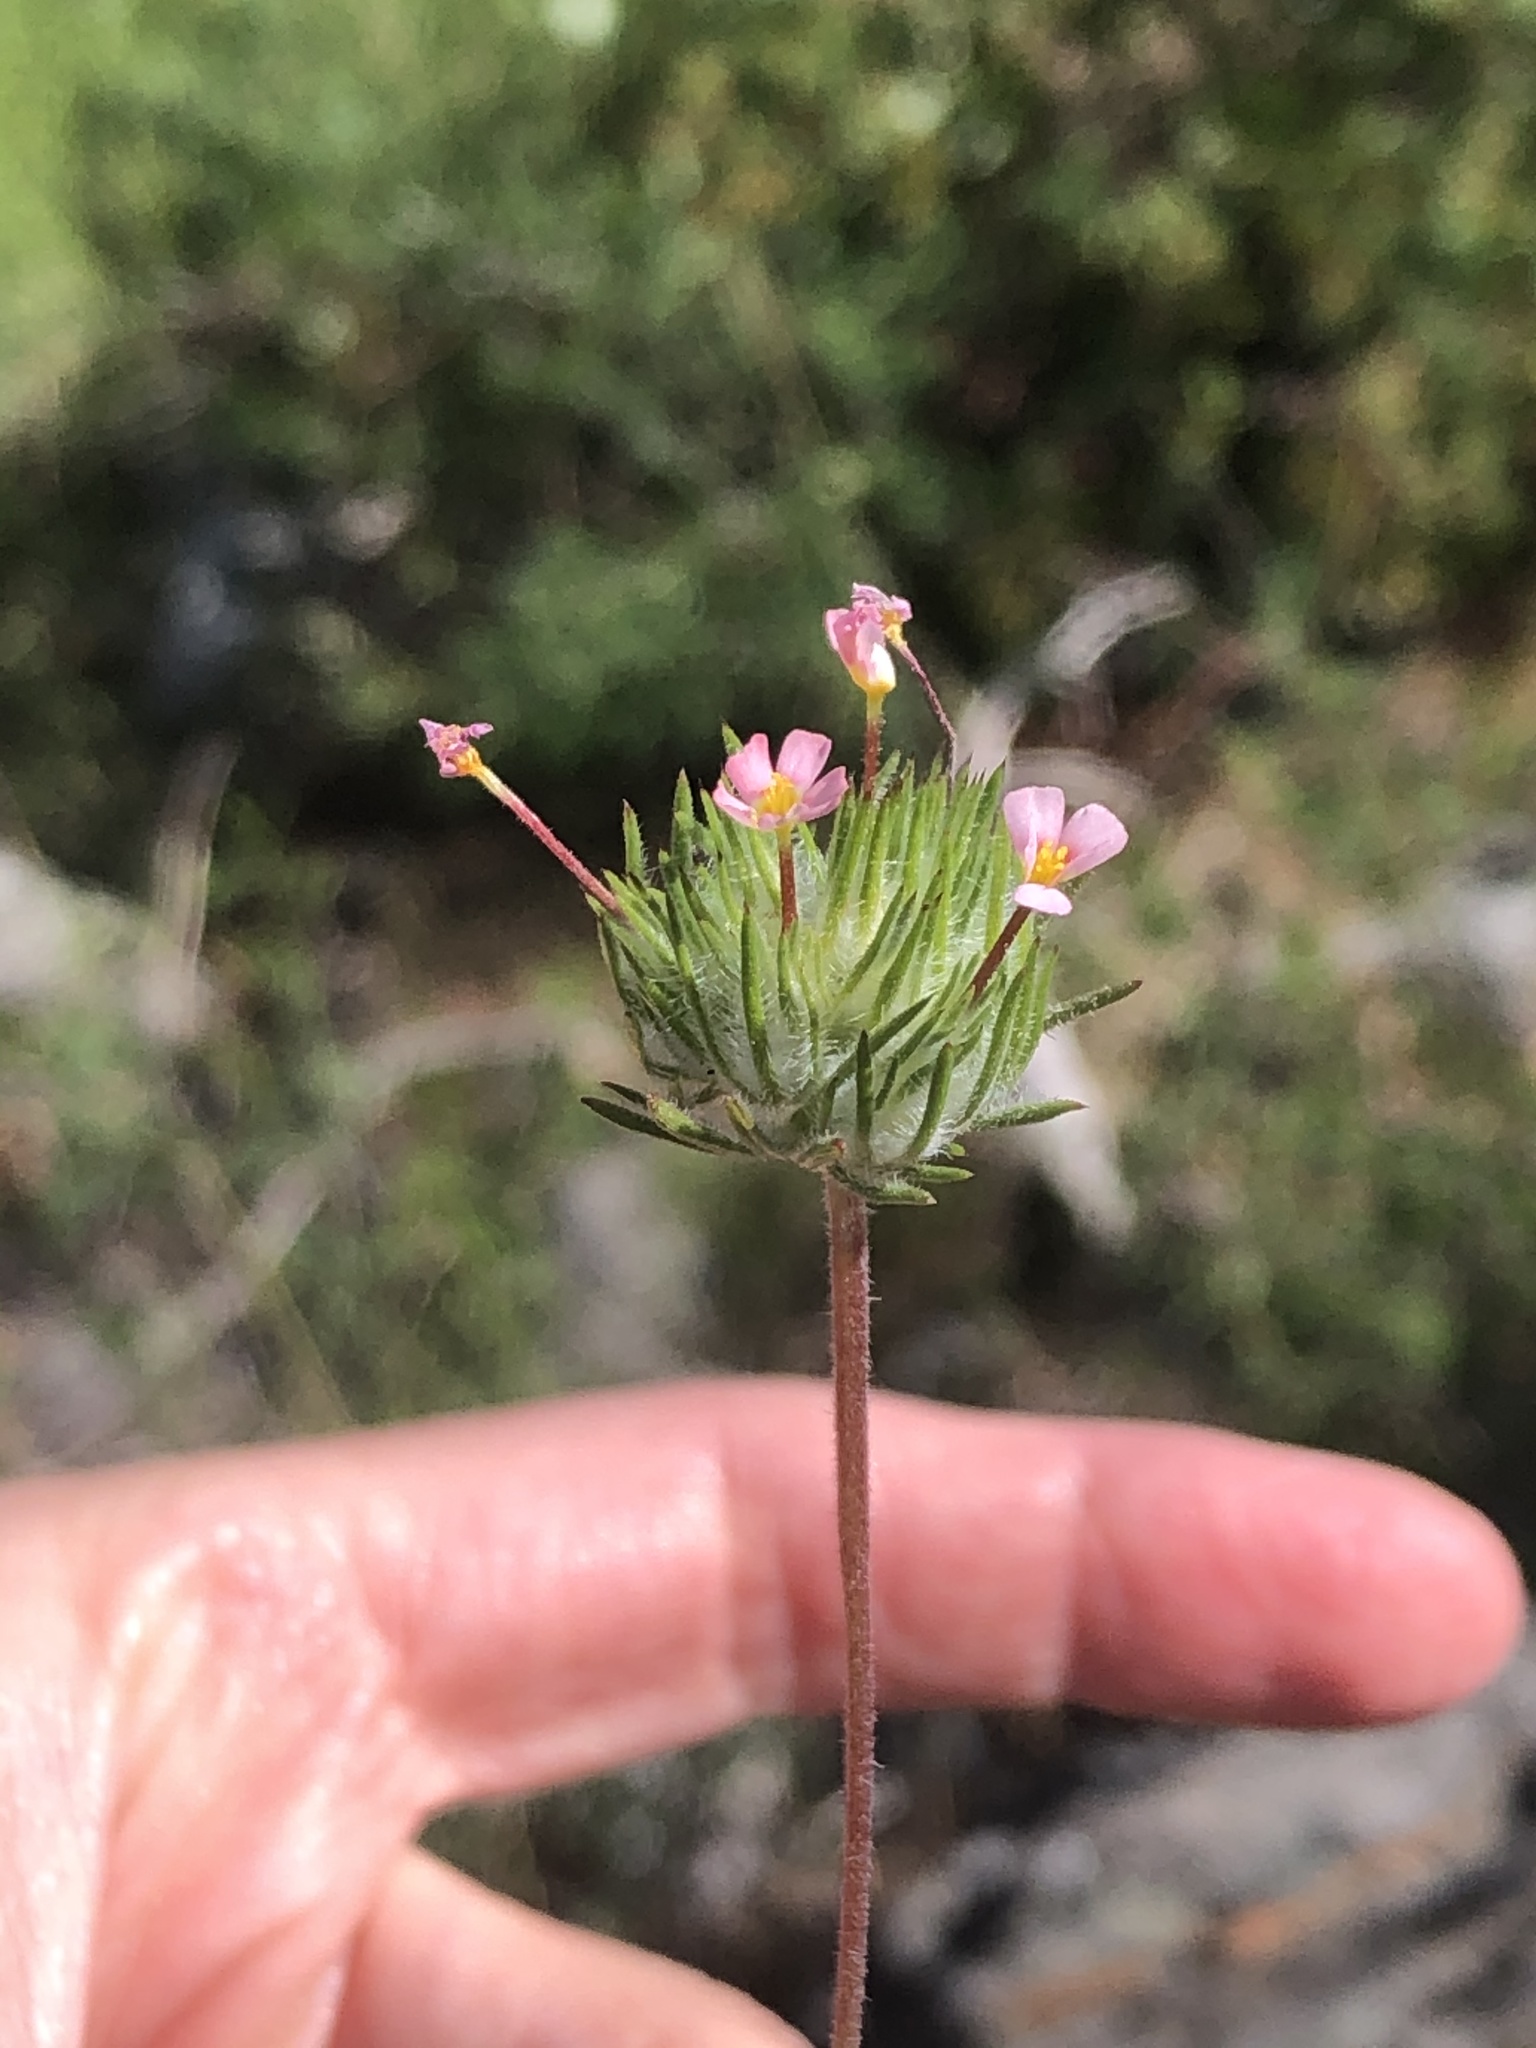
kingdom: Plantae
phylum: Tracheophyta
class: Magnoliopsida
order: Ericales
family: Polemoniaceae
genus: Leptosiphon
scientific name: Leptosiphon ciliatus
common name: Whiskerbrush
